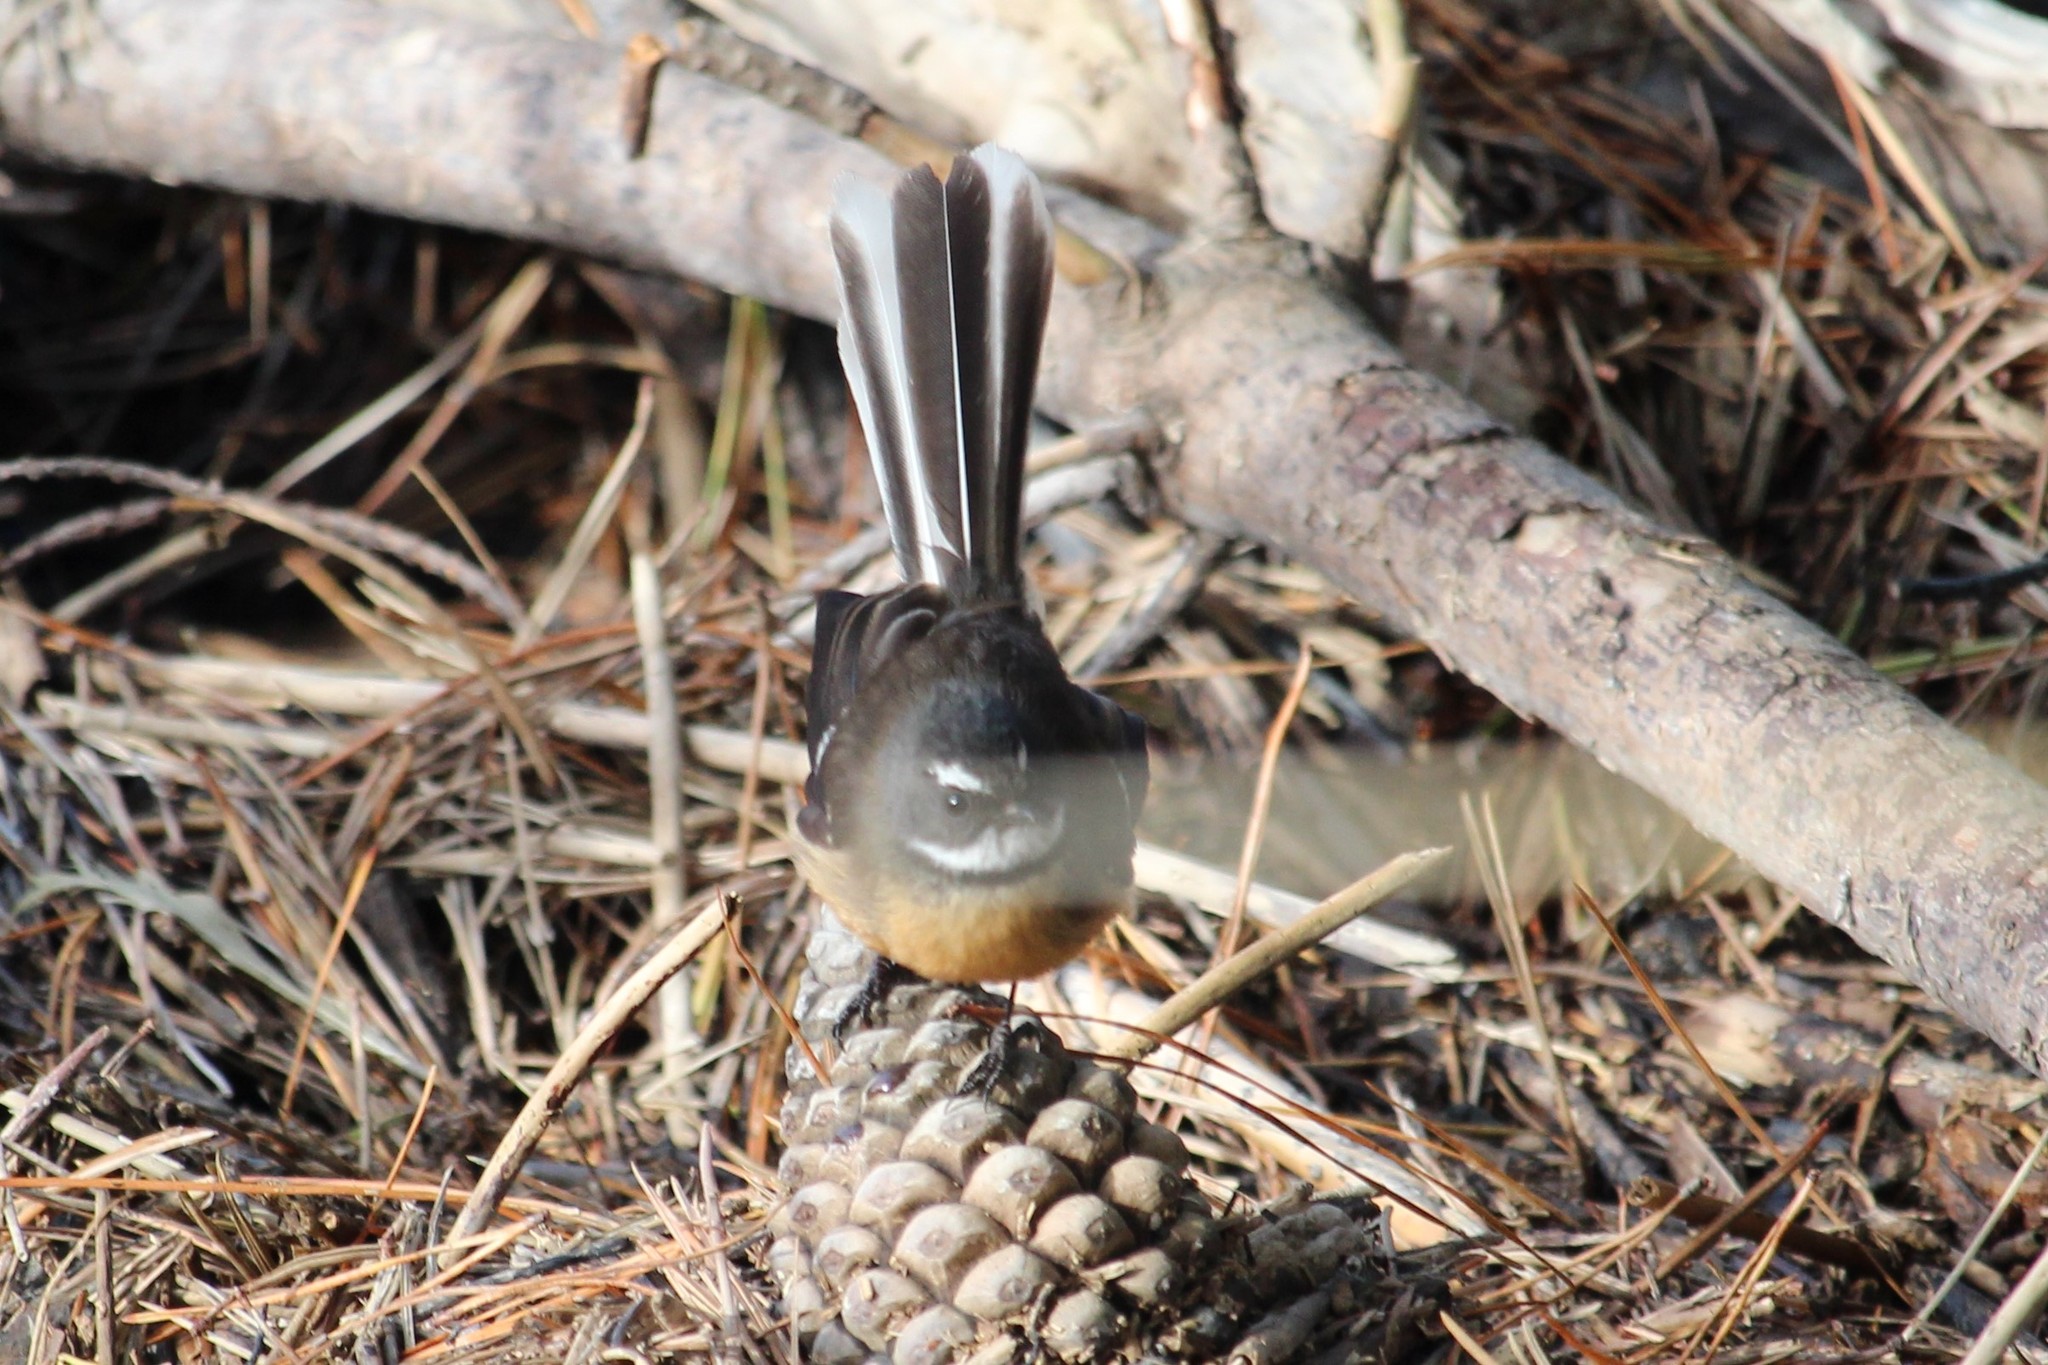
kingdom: Animalia
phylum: Chordata
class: Aves
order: Passeriformes
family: Rhipiduridae
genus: Rhipidura
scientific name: Rhipidura fuliginosa
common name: New zealand fantail
